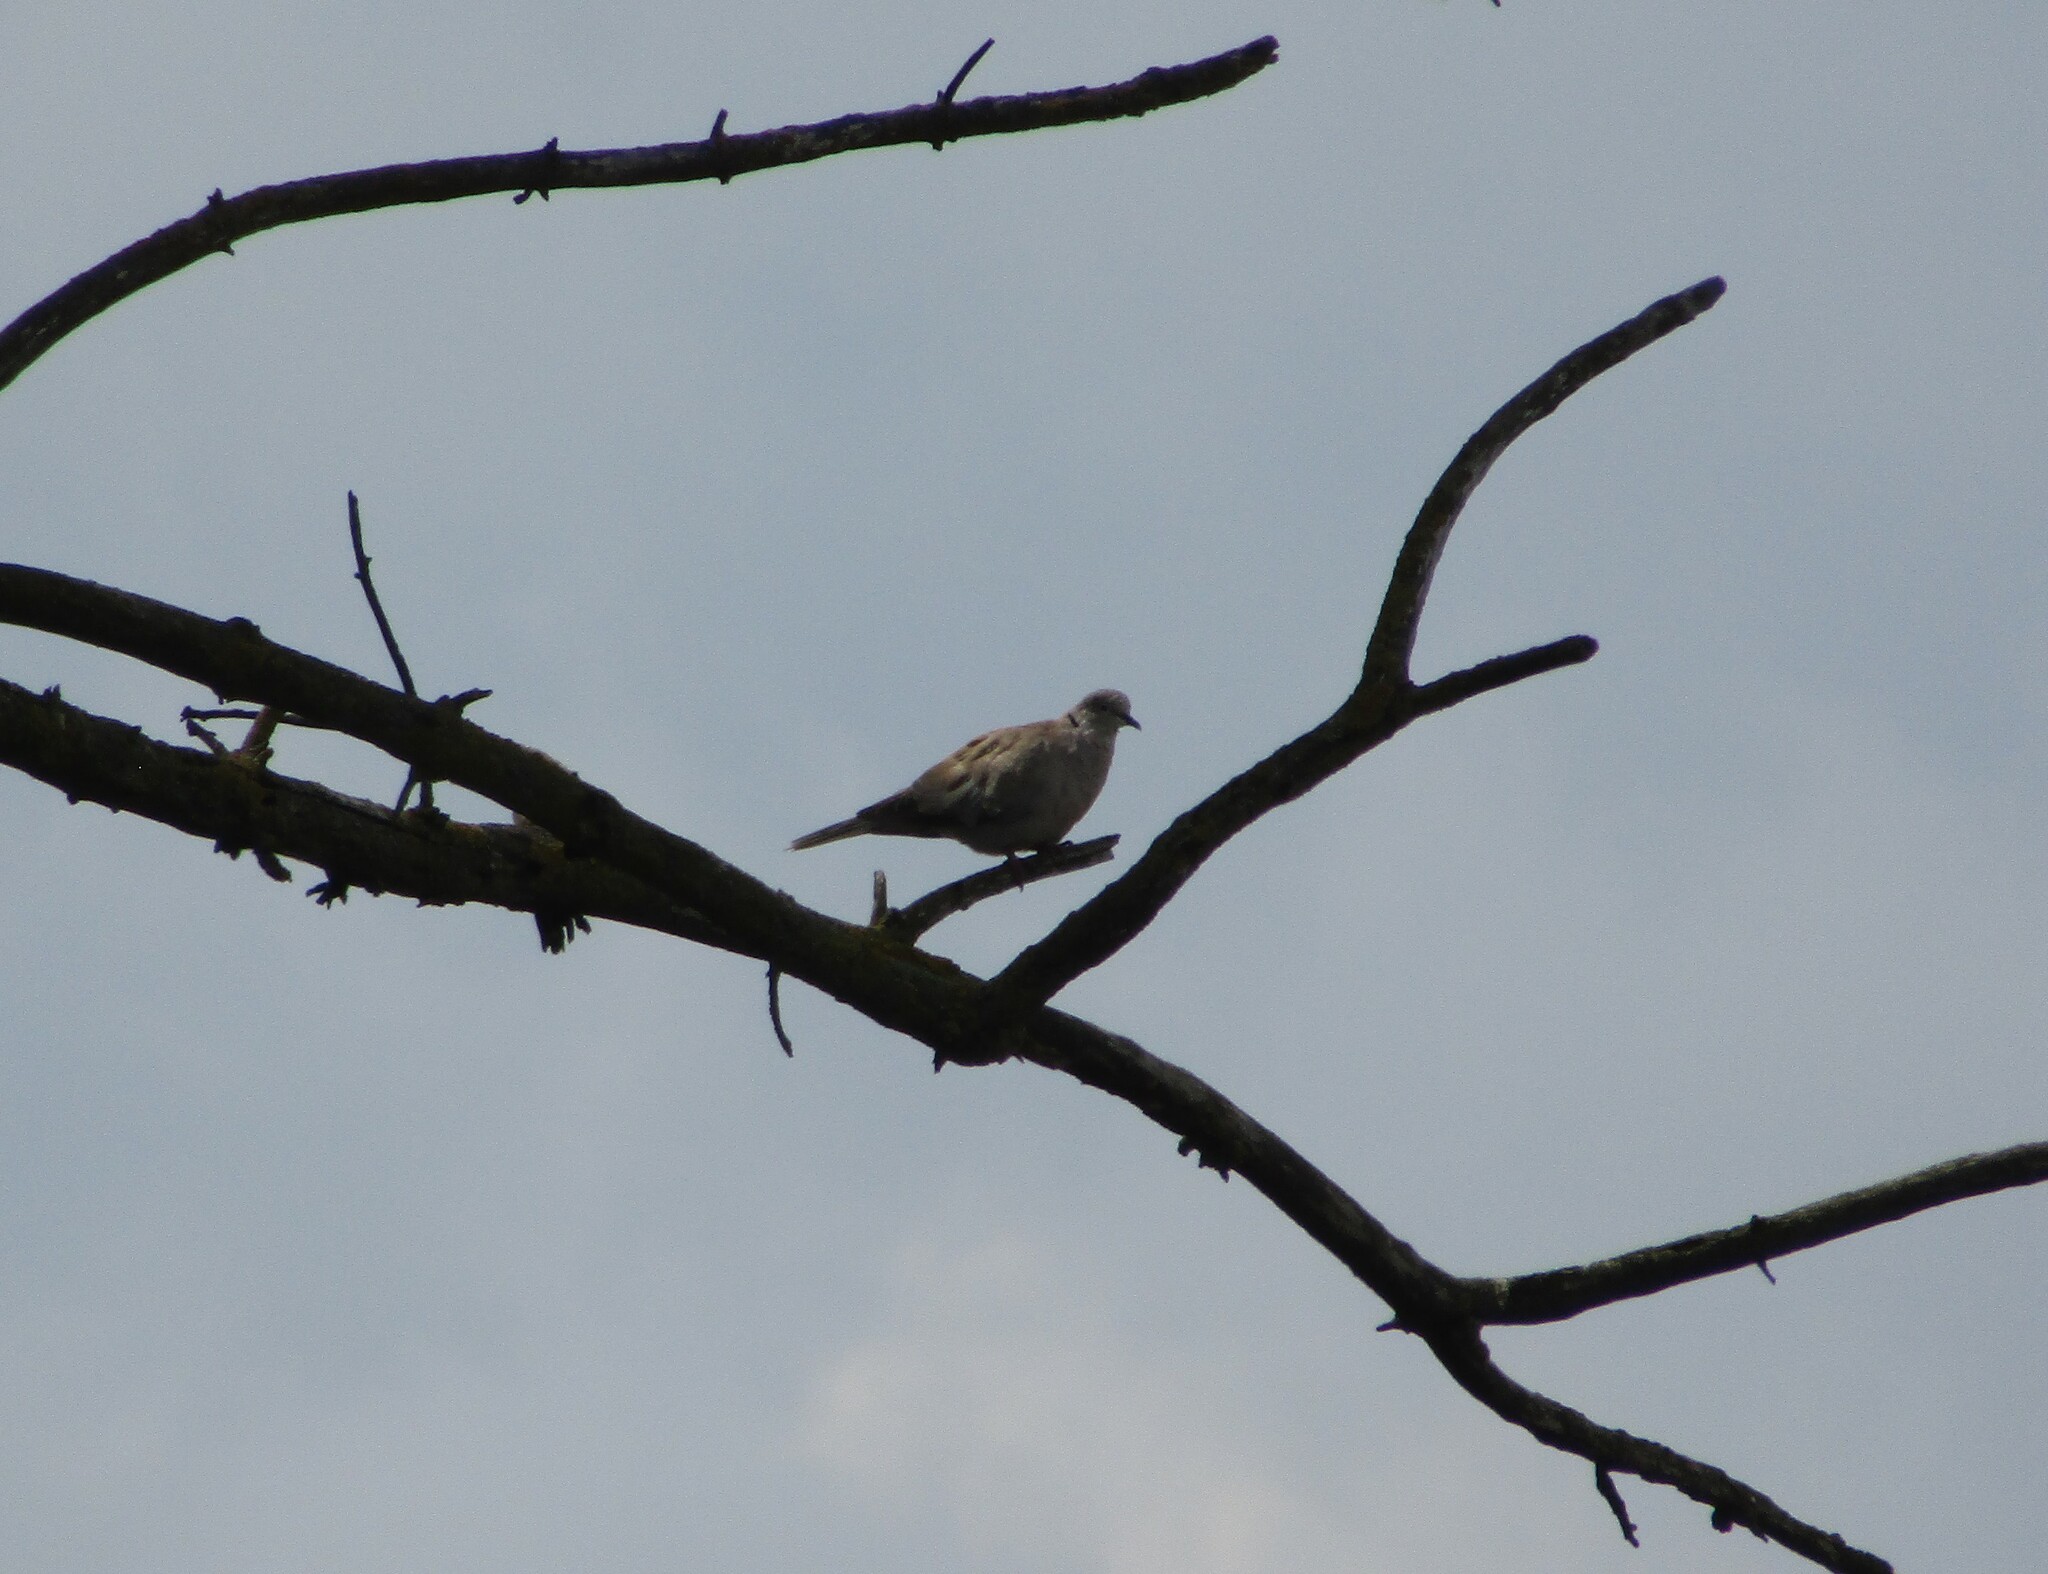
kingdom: Animalia
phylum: Chordata
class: Aves
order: Columbiformes
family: Columbidae
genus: Streptopelia
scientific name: Streptopelia decaocto
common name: Eurasian collared dove
